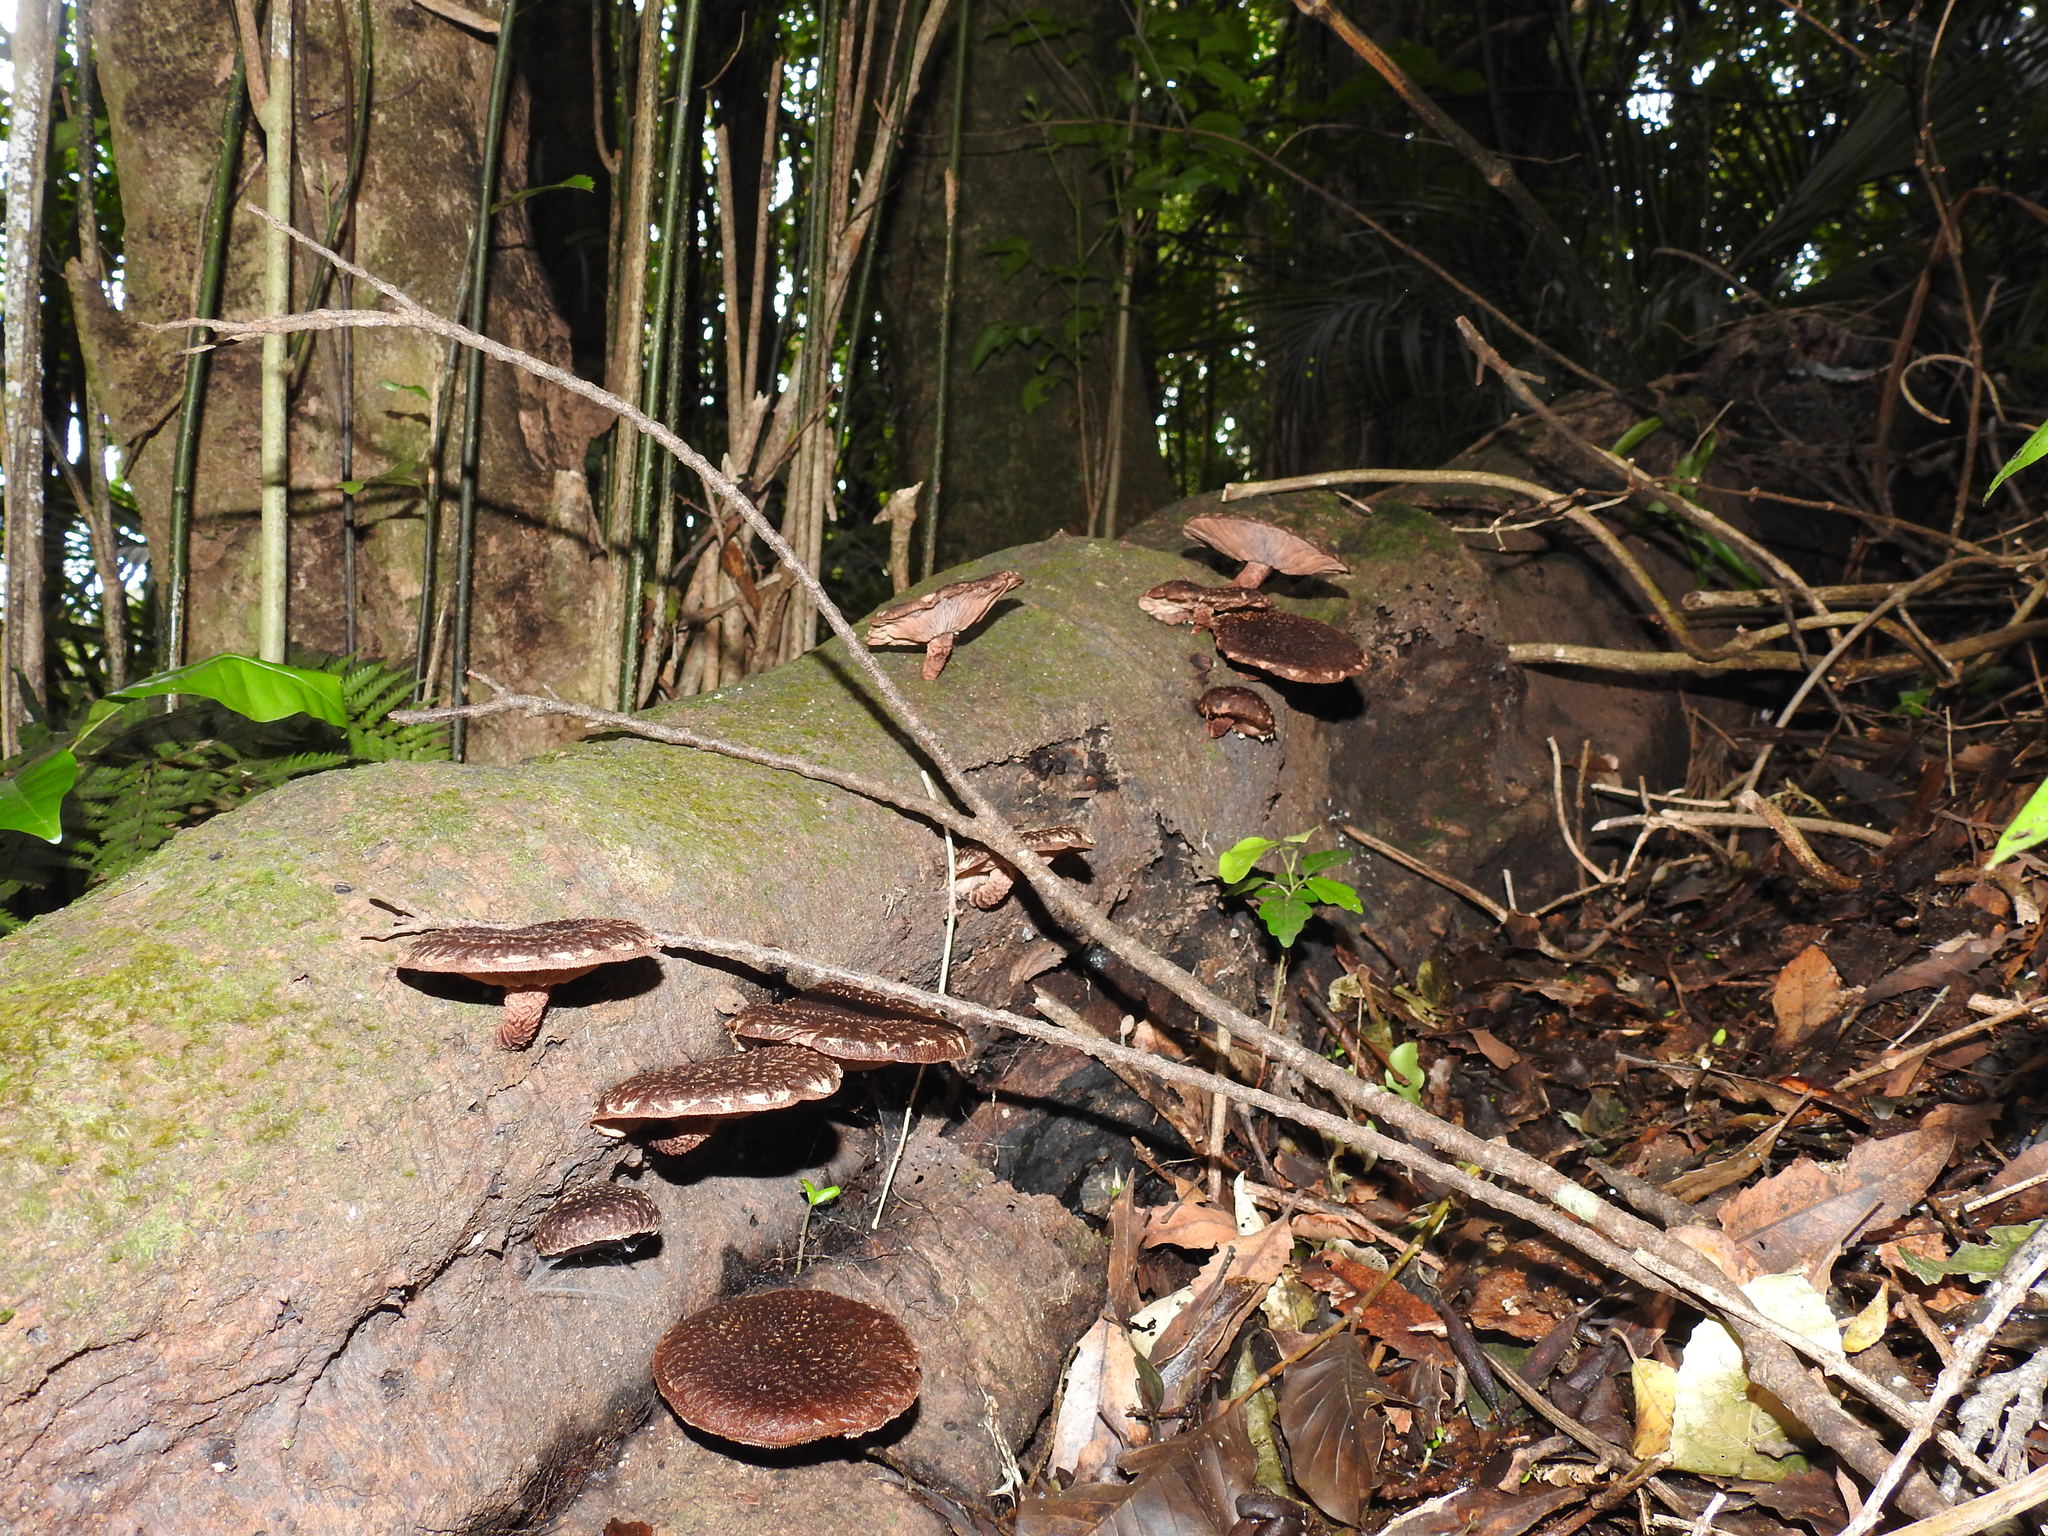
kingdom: Fungi
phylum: Basidiomycota
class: Agaricomycetes
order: Agaricales
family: Omphalotaceae
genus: Lentinula
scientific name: Lentinula novae-zelandiae
